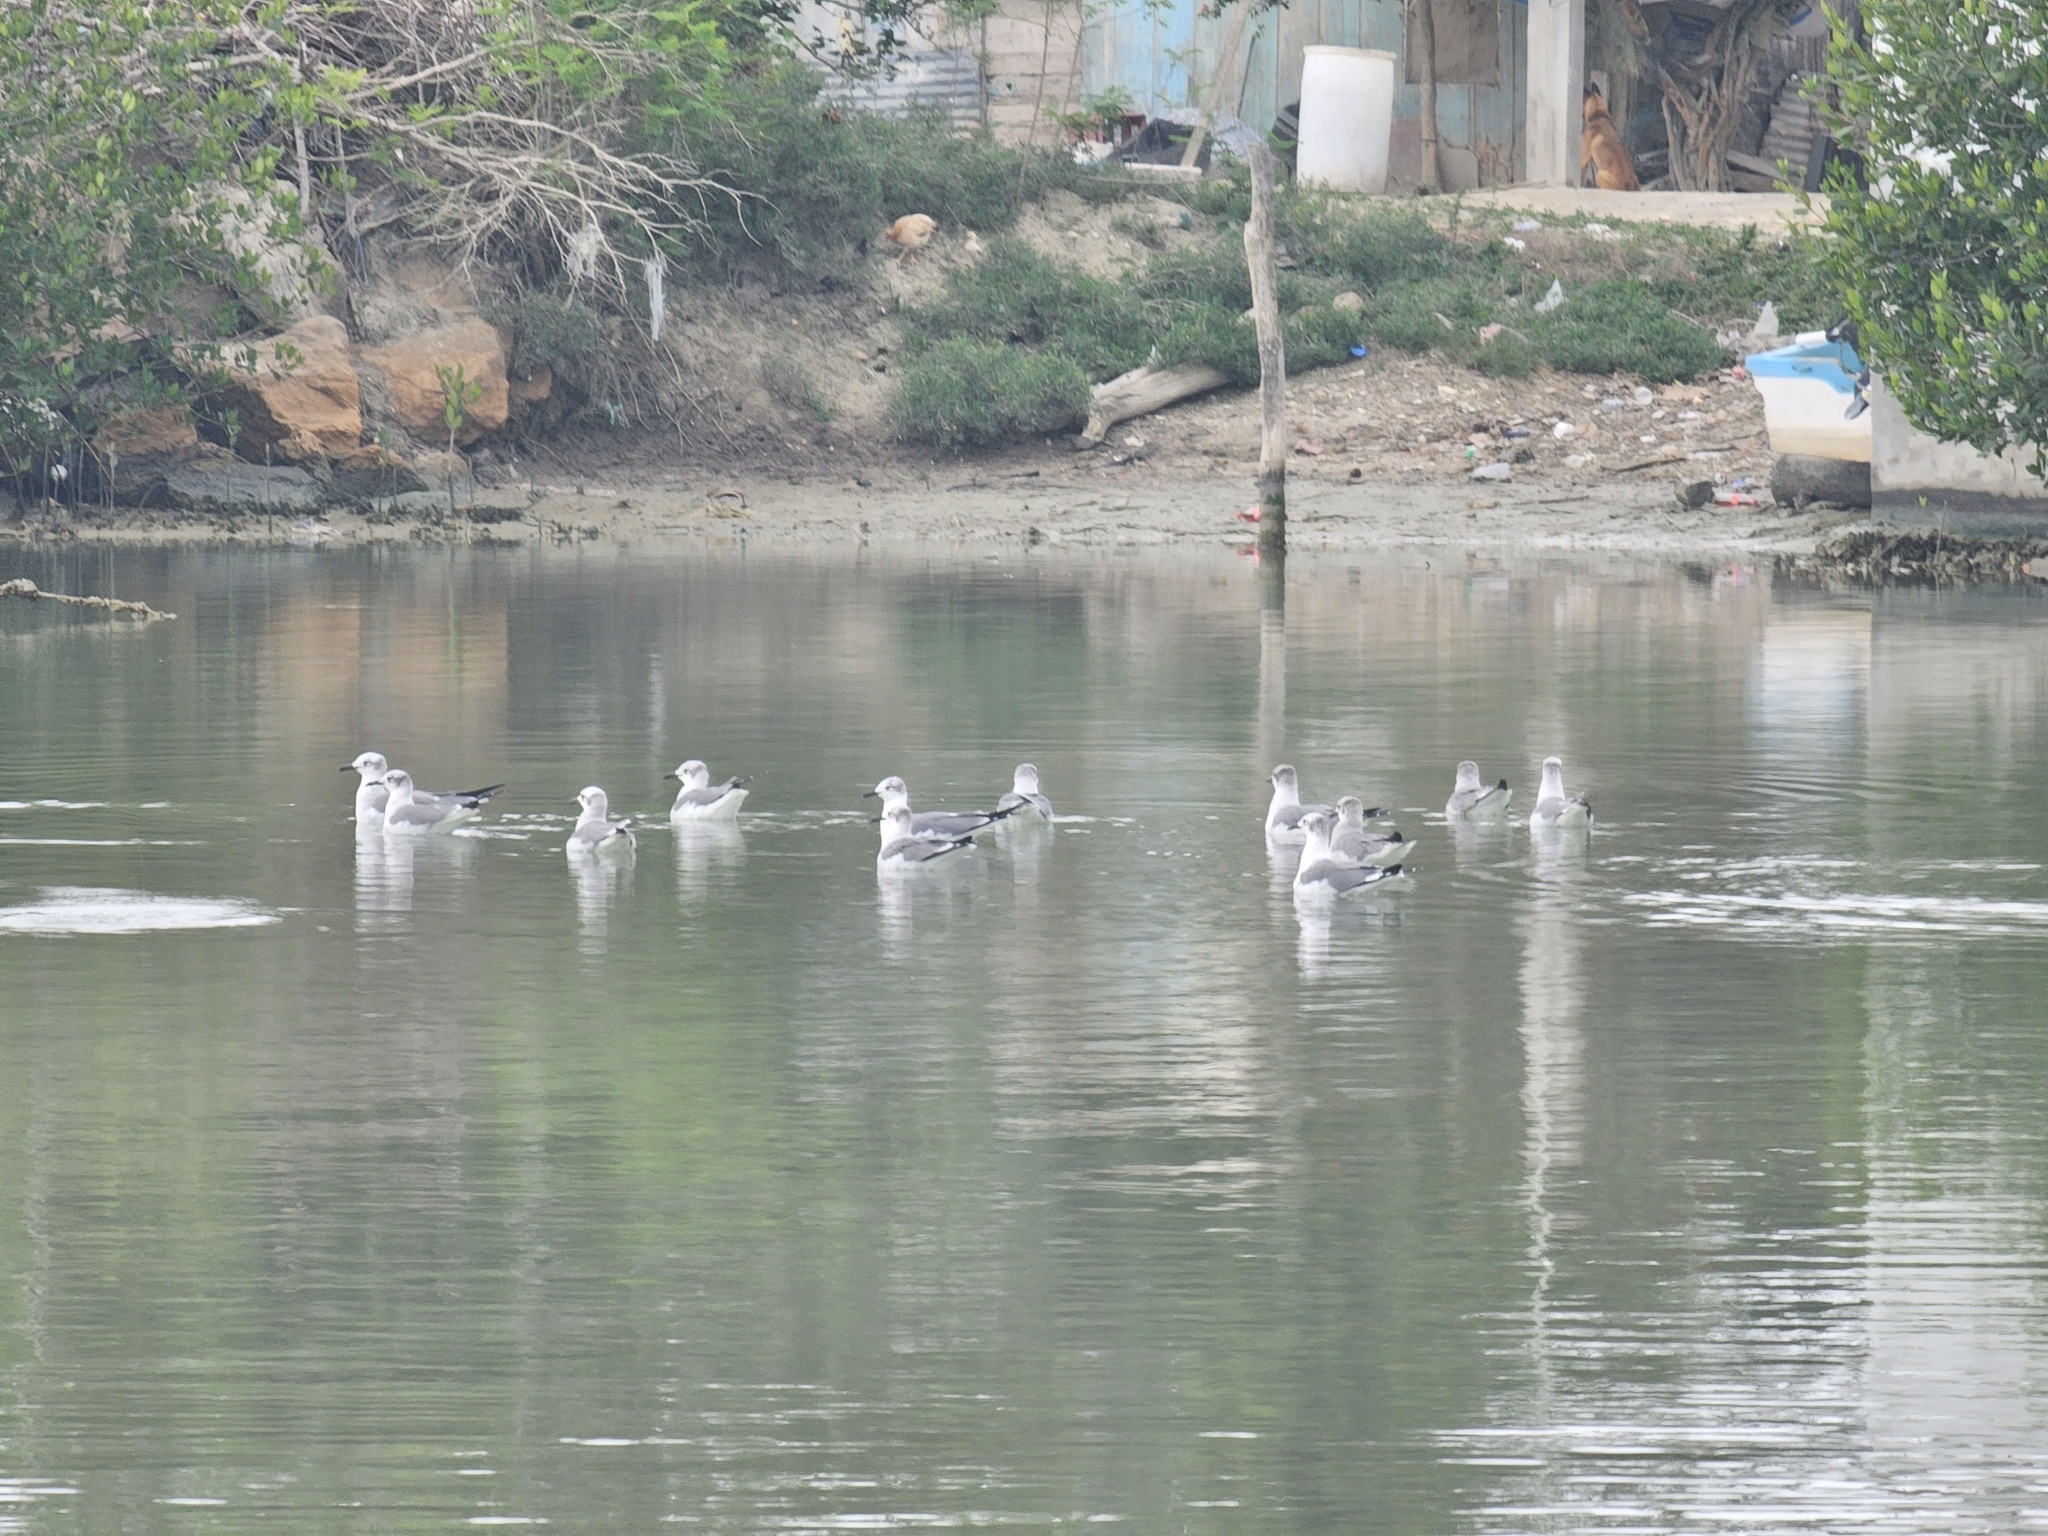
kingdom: Animalia
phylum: Chordata
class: Aves
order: Charadriiformes
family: Laridae
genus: Leucophaeus
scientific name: Leucophaeus atricilla
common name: Laughing gull
